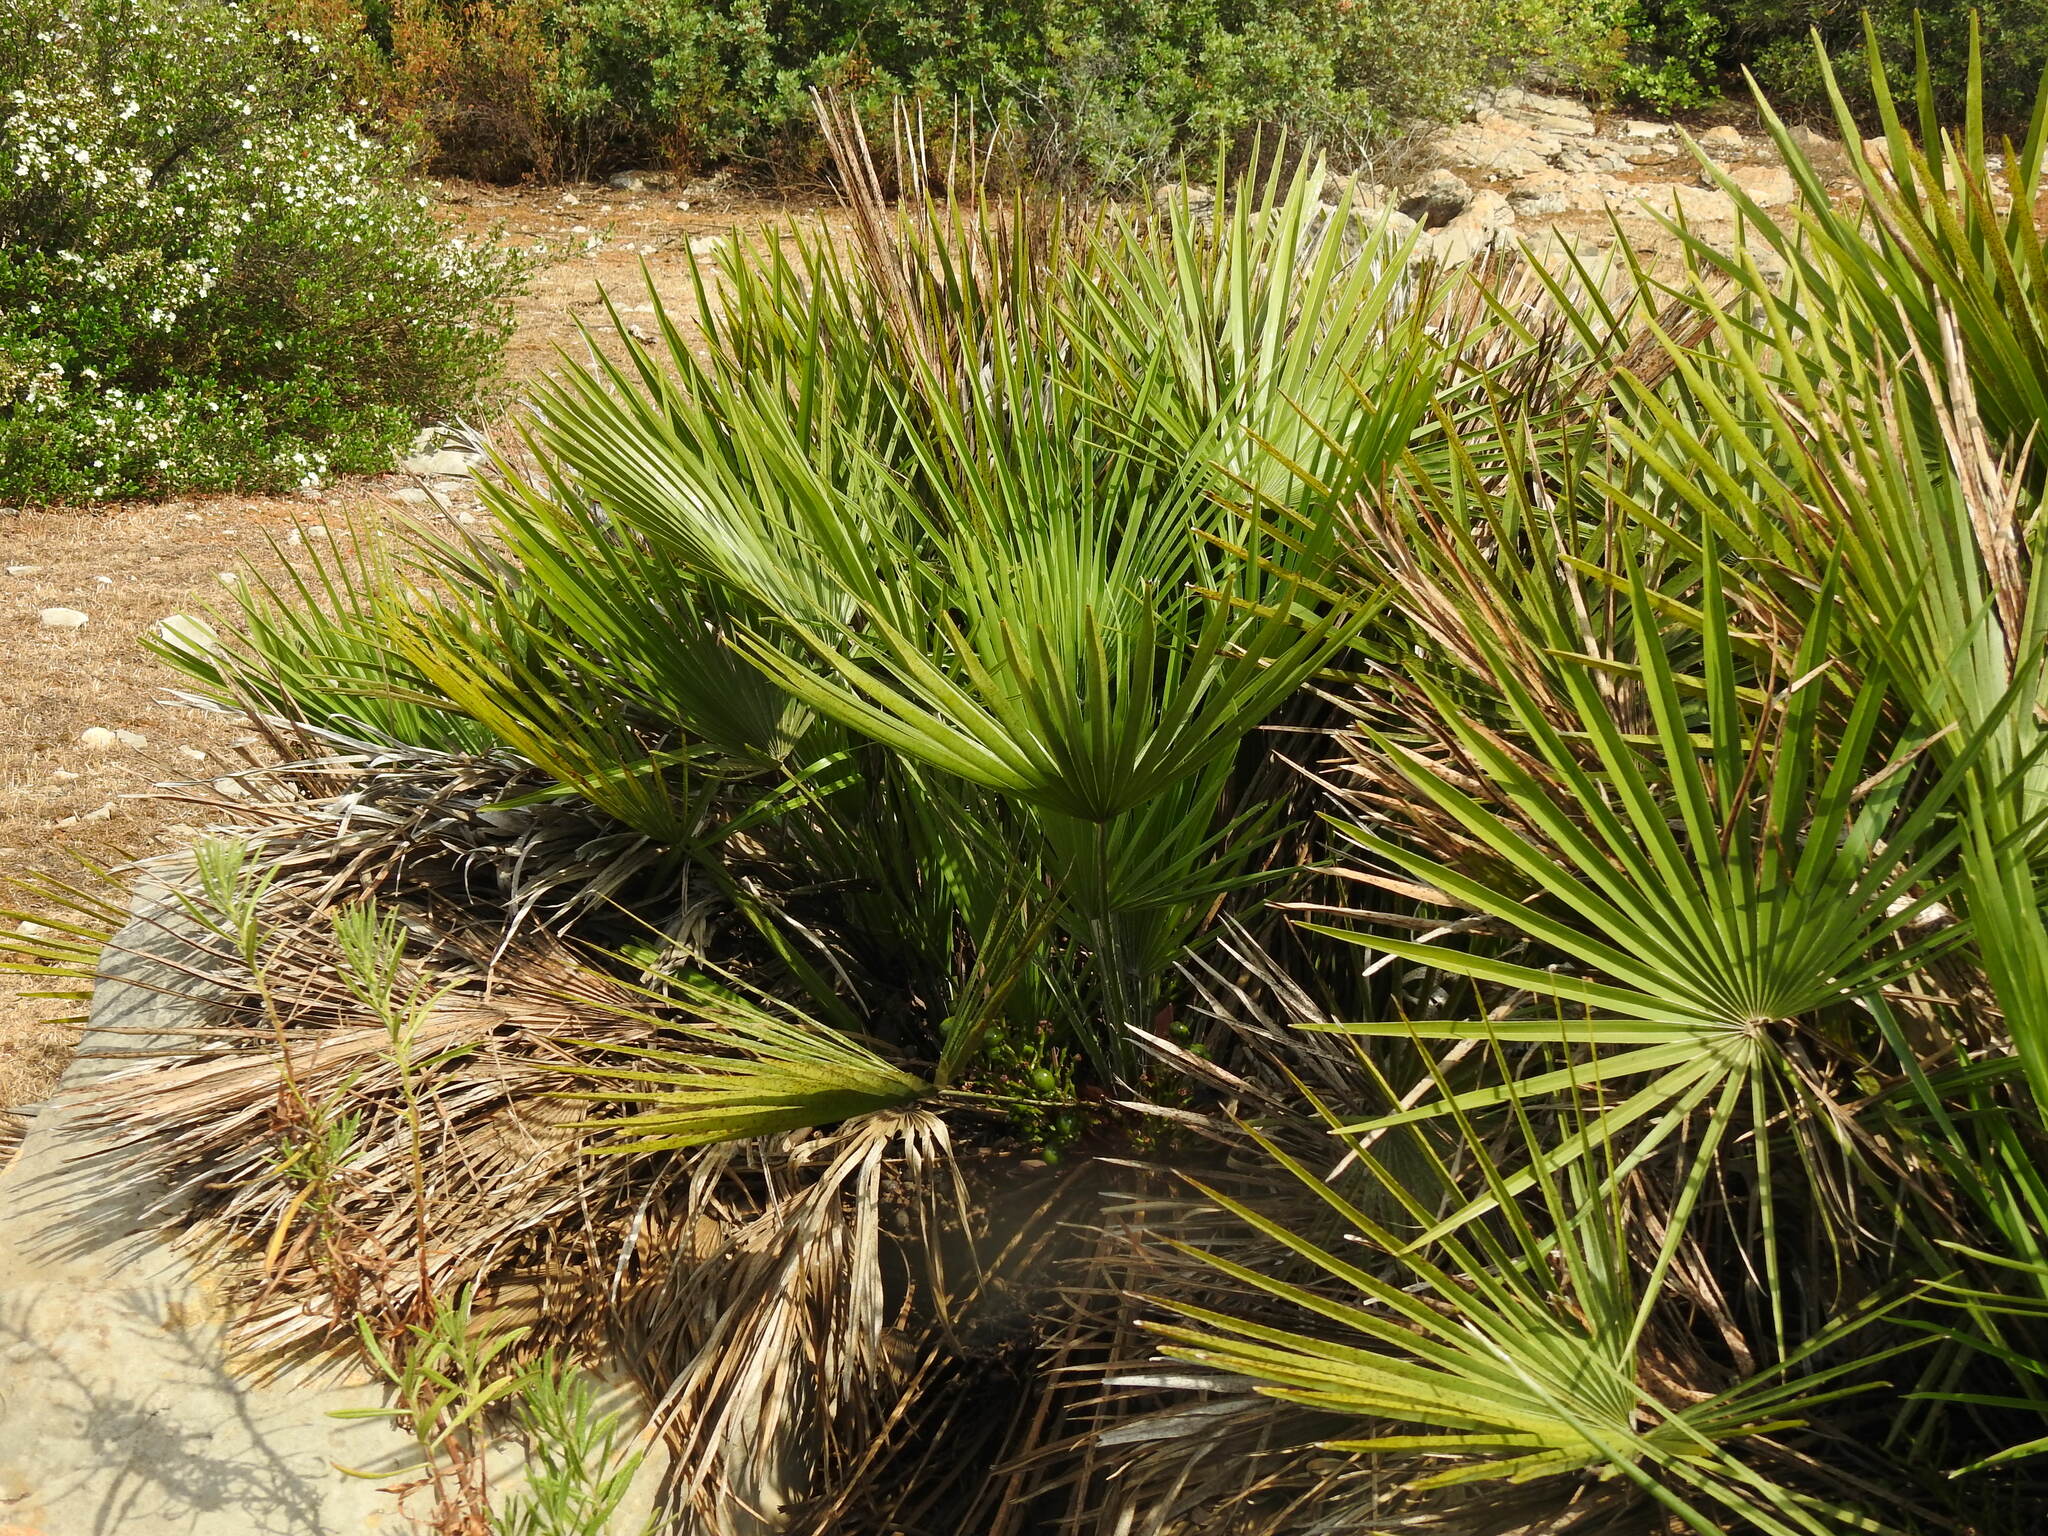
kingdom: Plantae
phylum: Tracheophyta
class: Liliopsida
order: Arecales
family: Arecaceae
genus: Chamaerops
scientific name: Chamaerops humilis
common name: Dwarf fan palm
